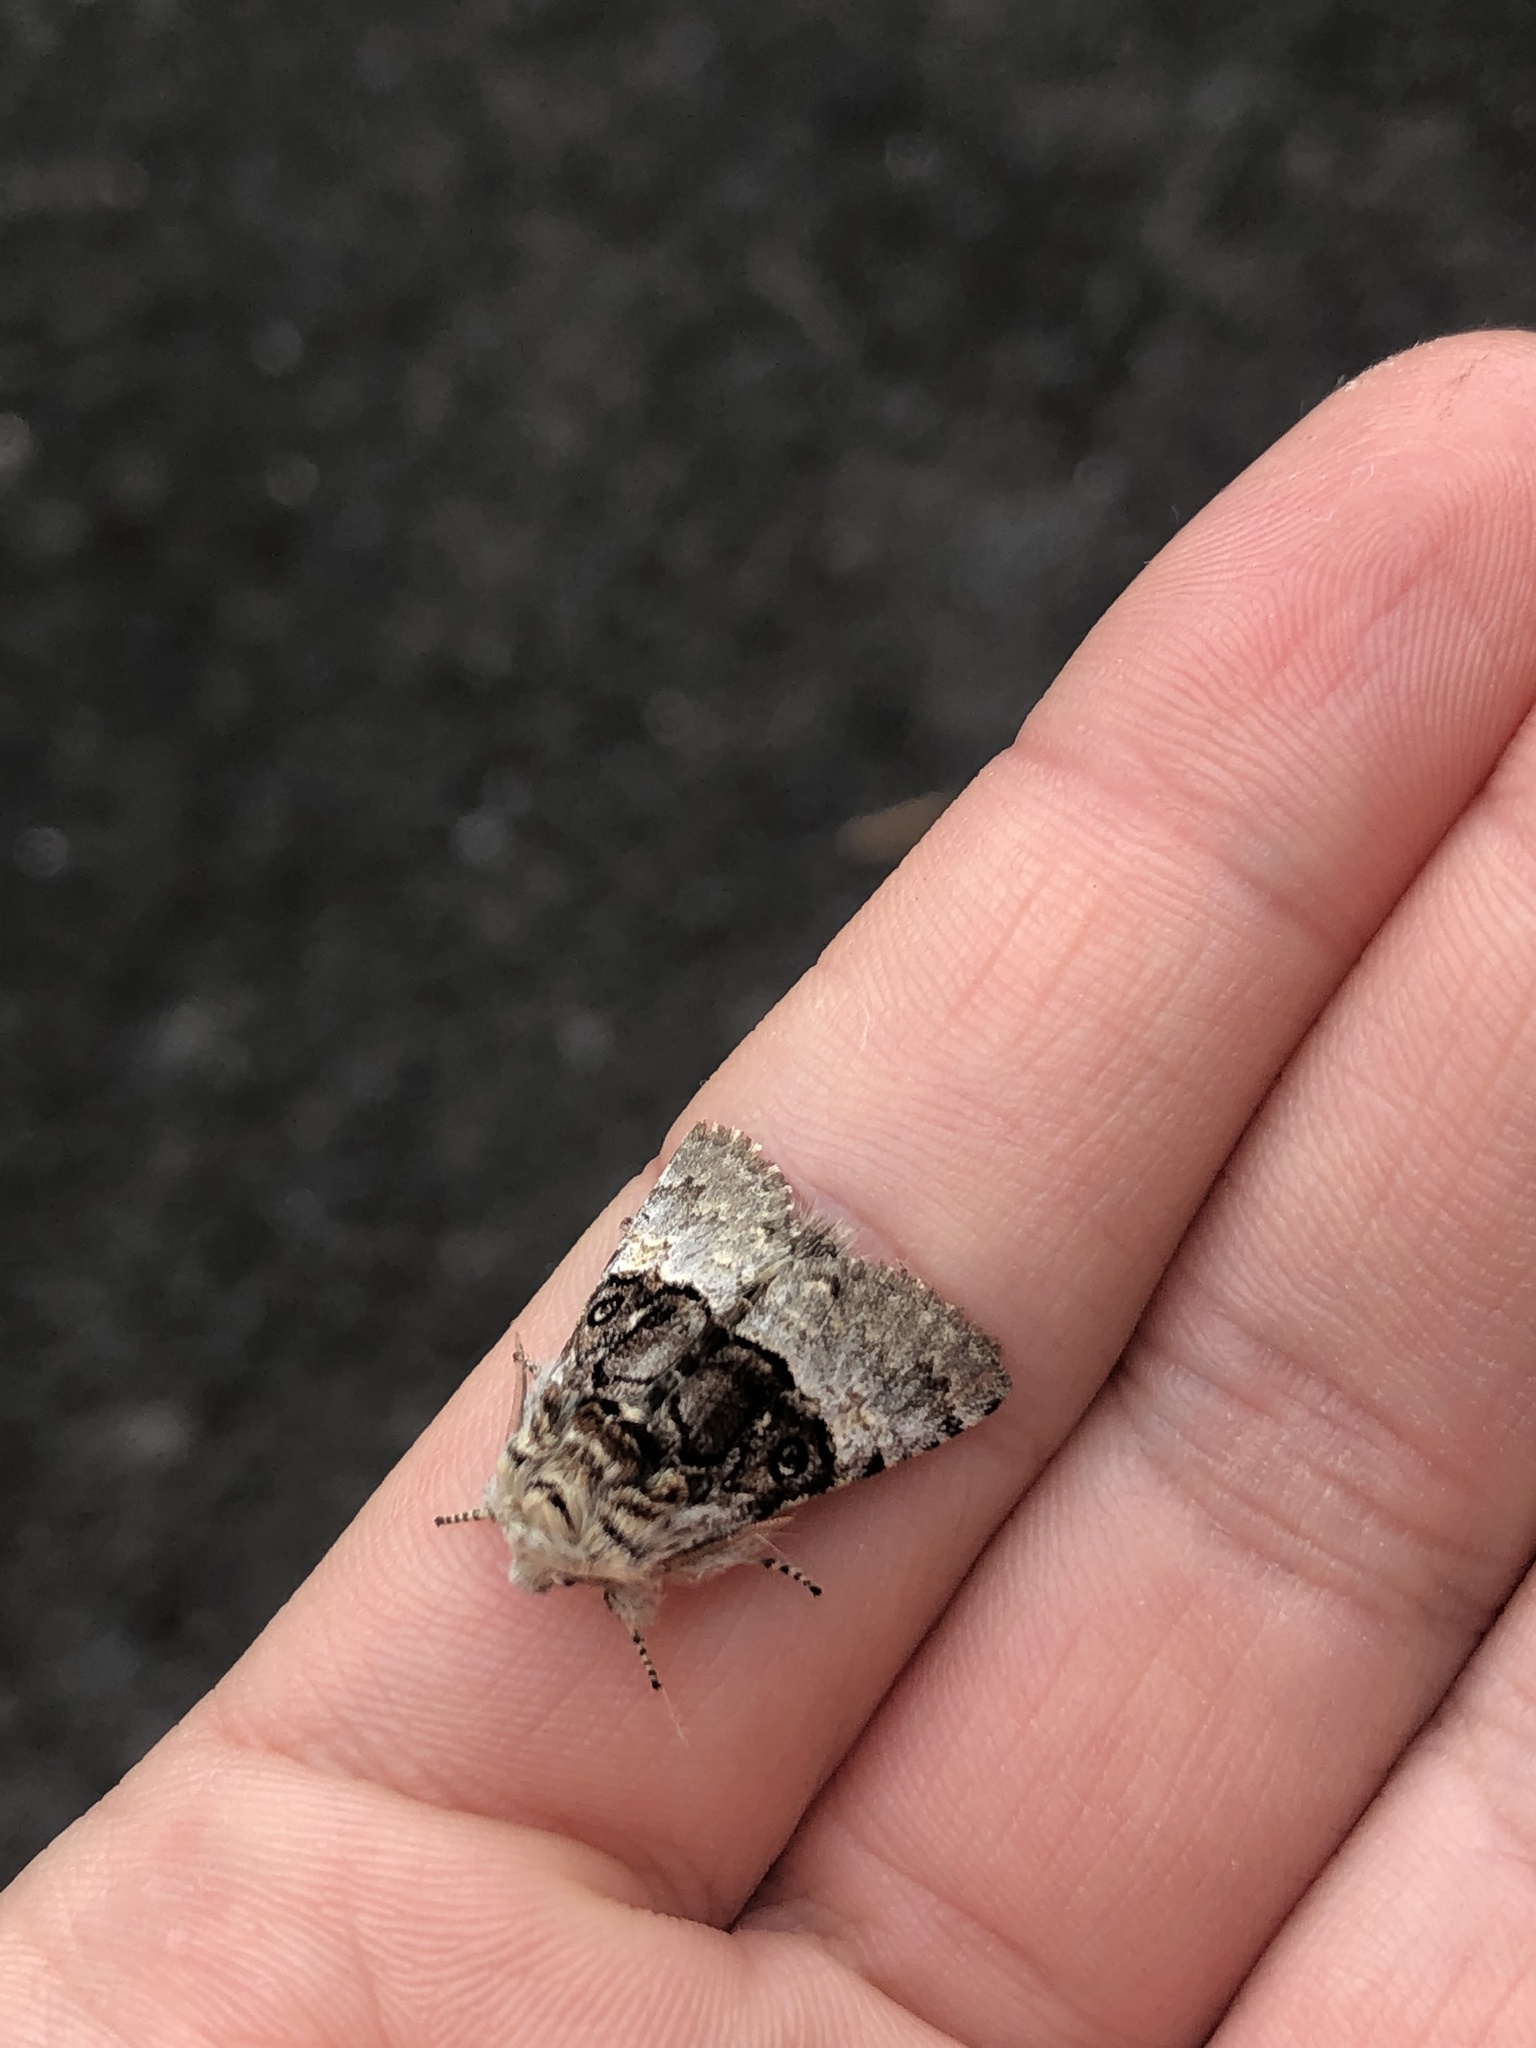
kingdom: Animalia
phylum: Arthropoda
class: Insecta
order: Lepidoptera
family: Noctuidae
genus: Colocasia
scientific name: Colocasia coryli
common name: Nut-tree tussock
